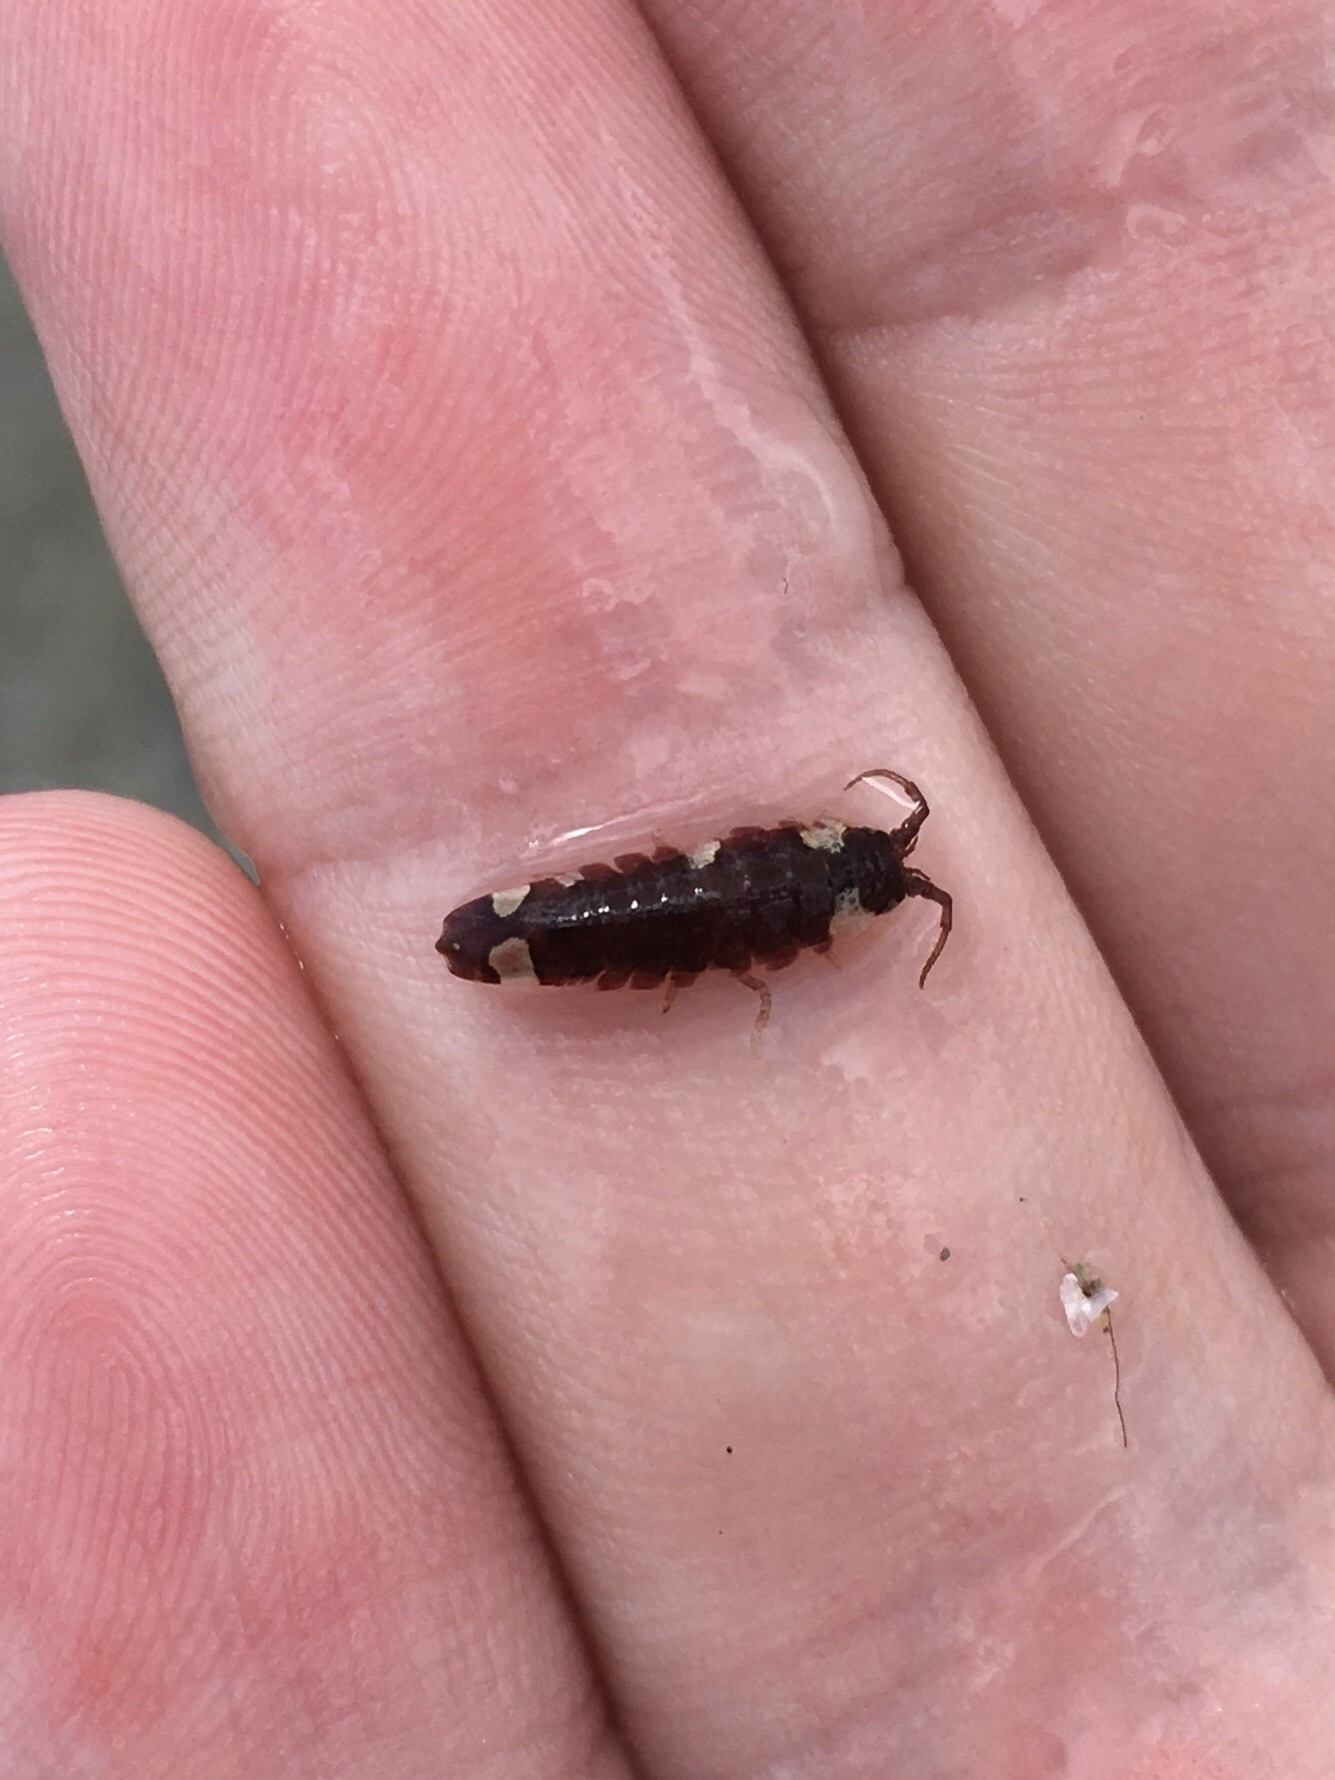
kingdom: Animalia
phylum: Arthropoda
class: Malacostraca
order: Isopoda
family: Idoteidae
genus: Idotea
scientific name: Idotea balthica
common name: Baltic isopod
